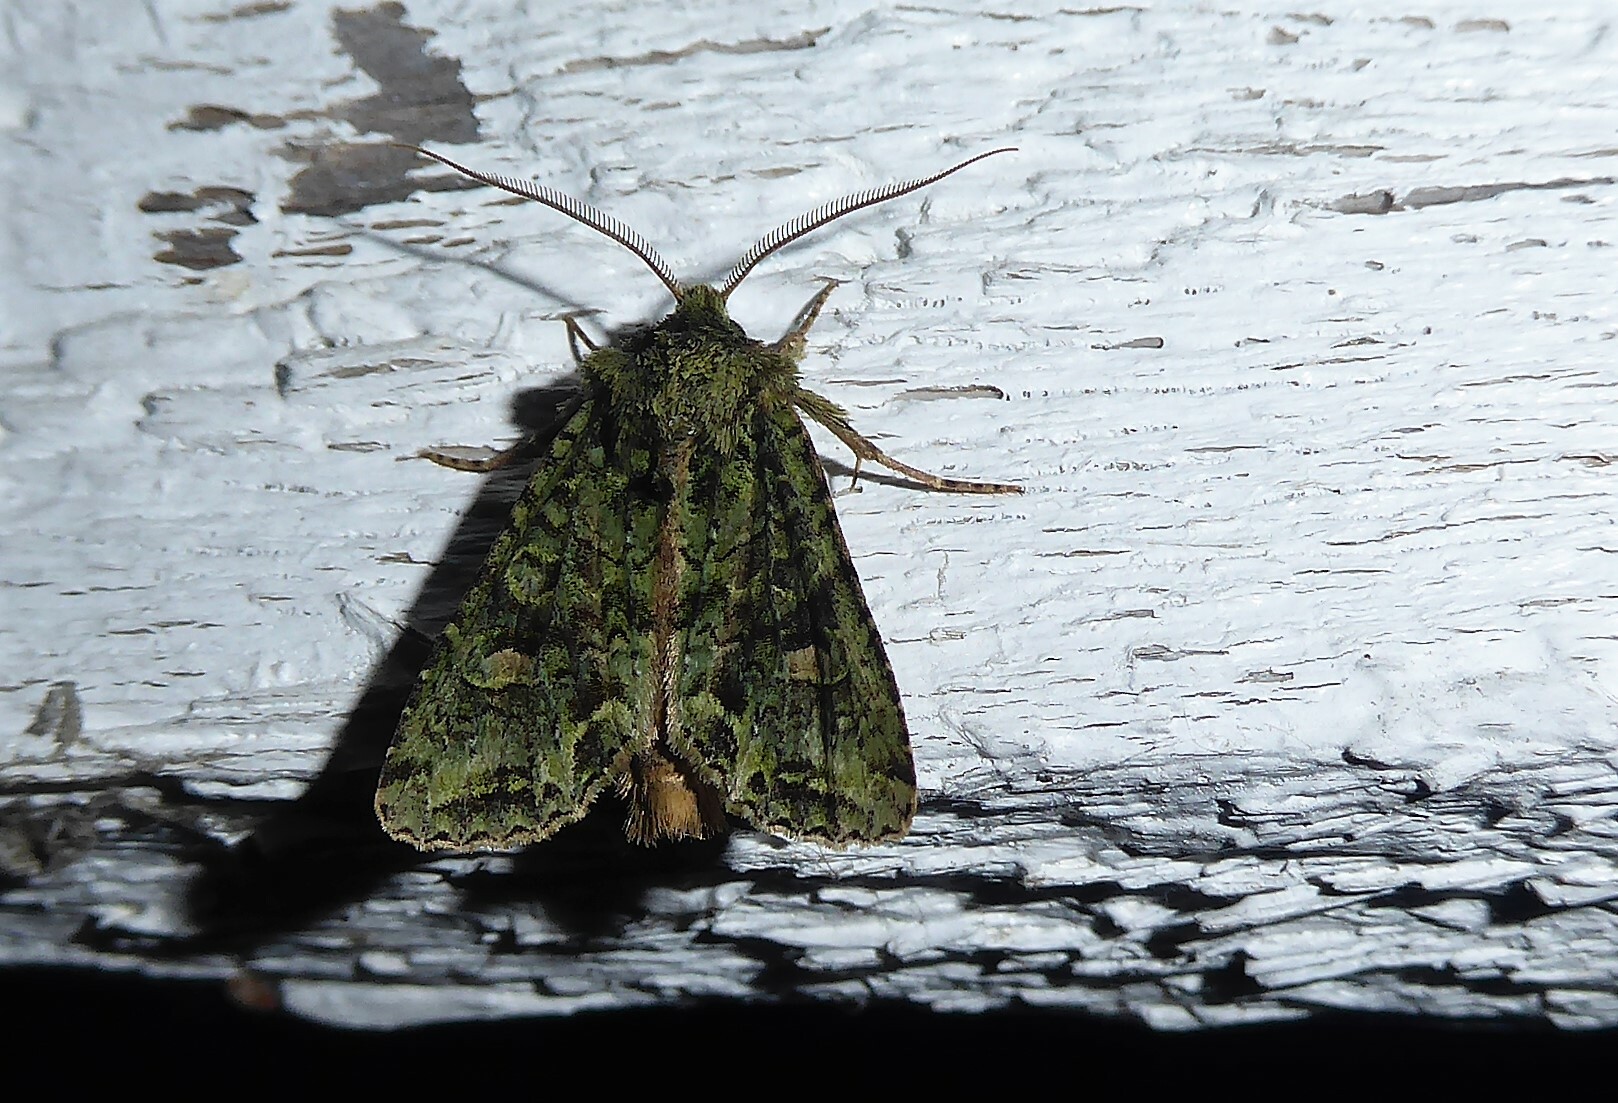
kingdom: Animalia
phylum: Arthropoda
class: Insecta
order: Lepidoptera
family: Noctuidae
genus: Ichneutica
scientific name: Ichneutica
